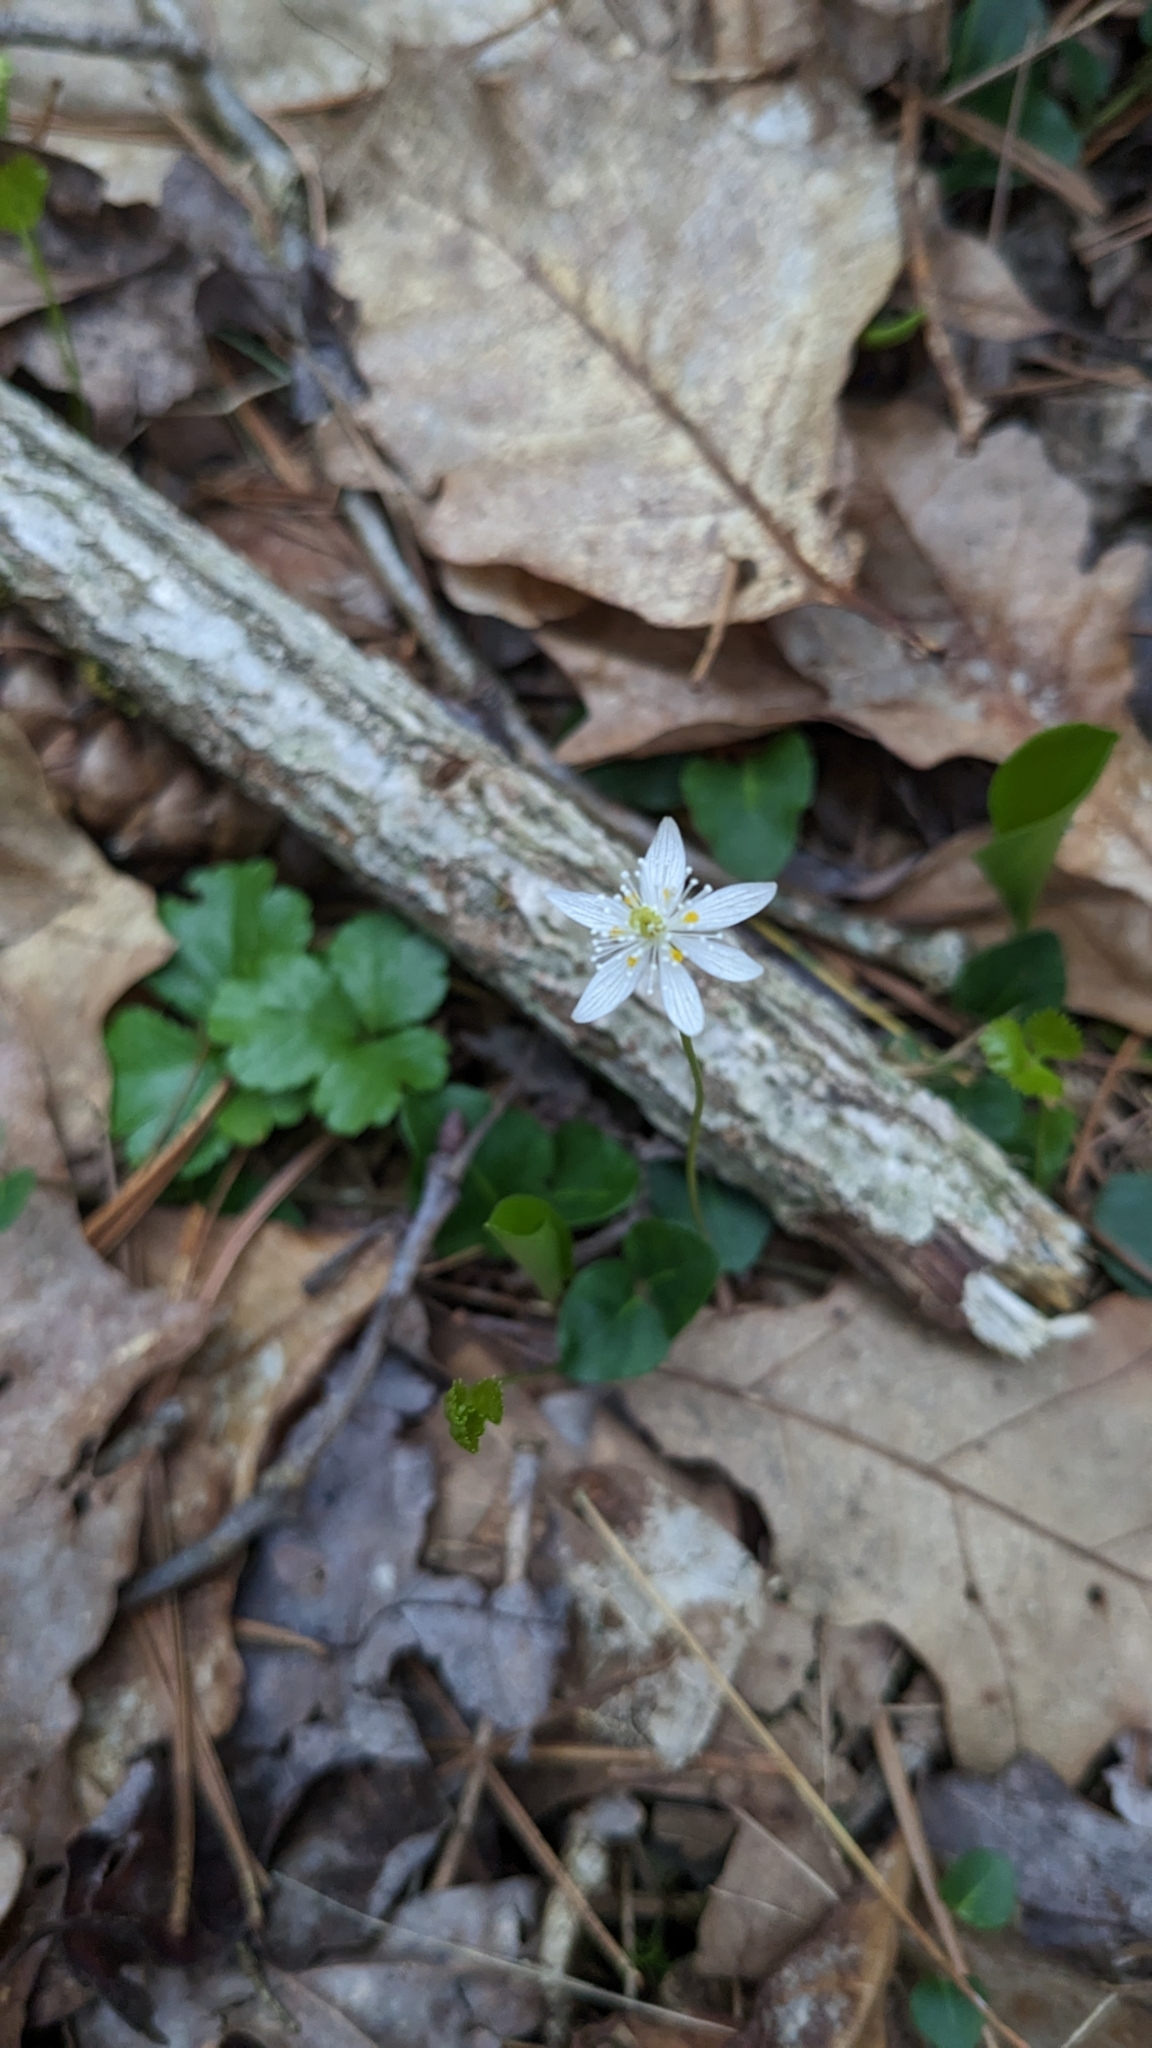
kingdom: Plantae
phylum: Tracheophyta
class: Magnoliopsida
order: Ranunculales
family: Ranunculaceae
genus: Coptis
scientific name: Coptis trifolia
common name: Canker-root
